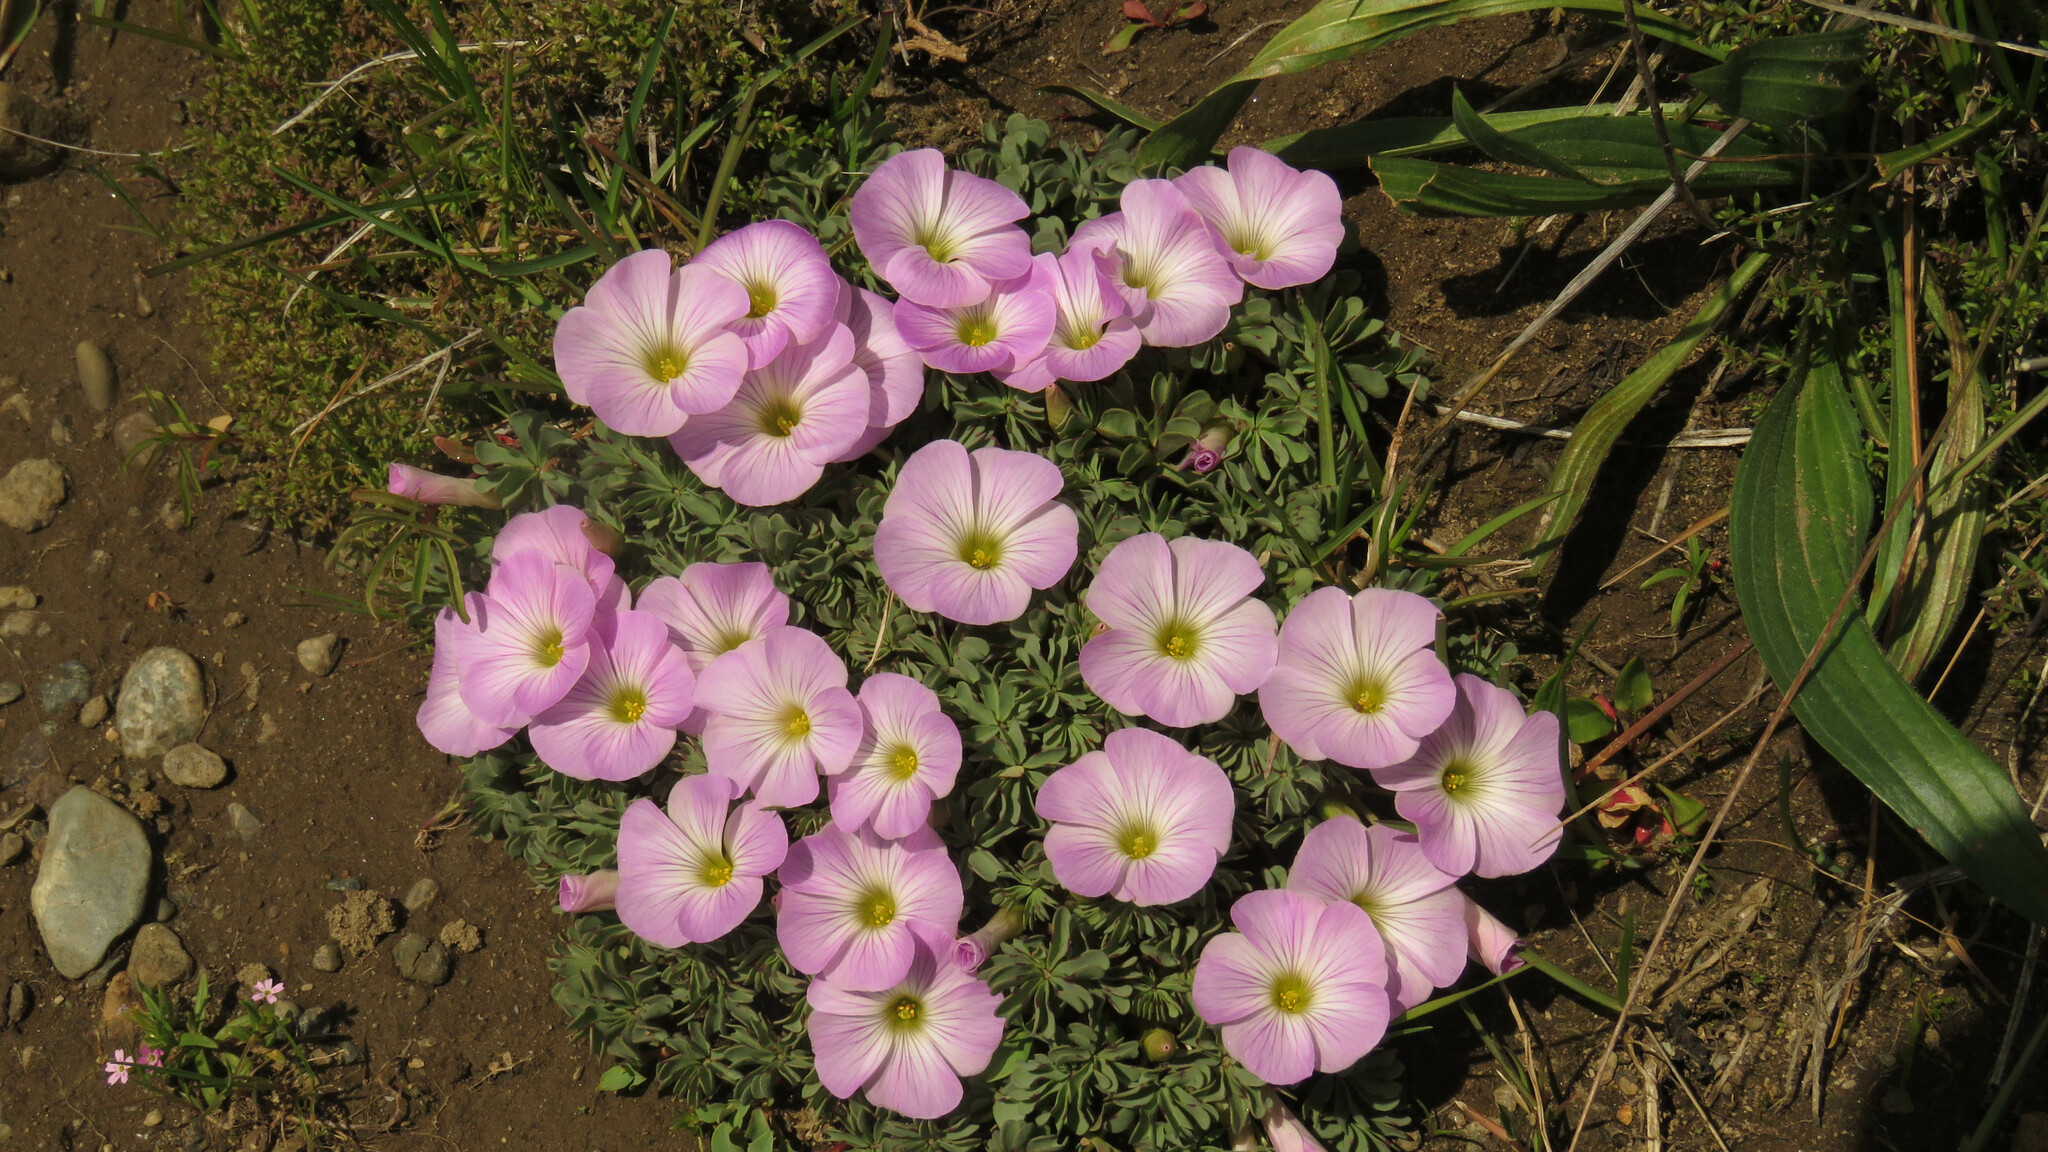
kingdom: Plantae
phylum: Tracheophyta
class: Magnoliopsida
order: Oxalidales
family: Oxalidaceae
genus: Oxalis
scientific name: Oxalis adenophylla
